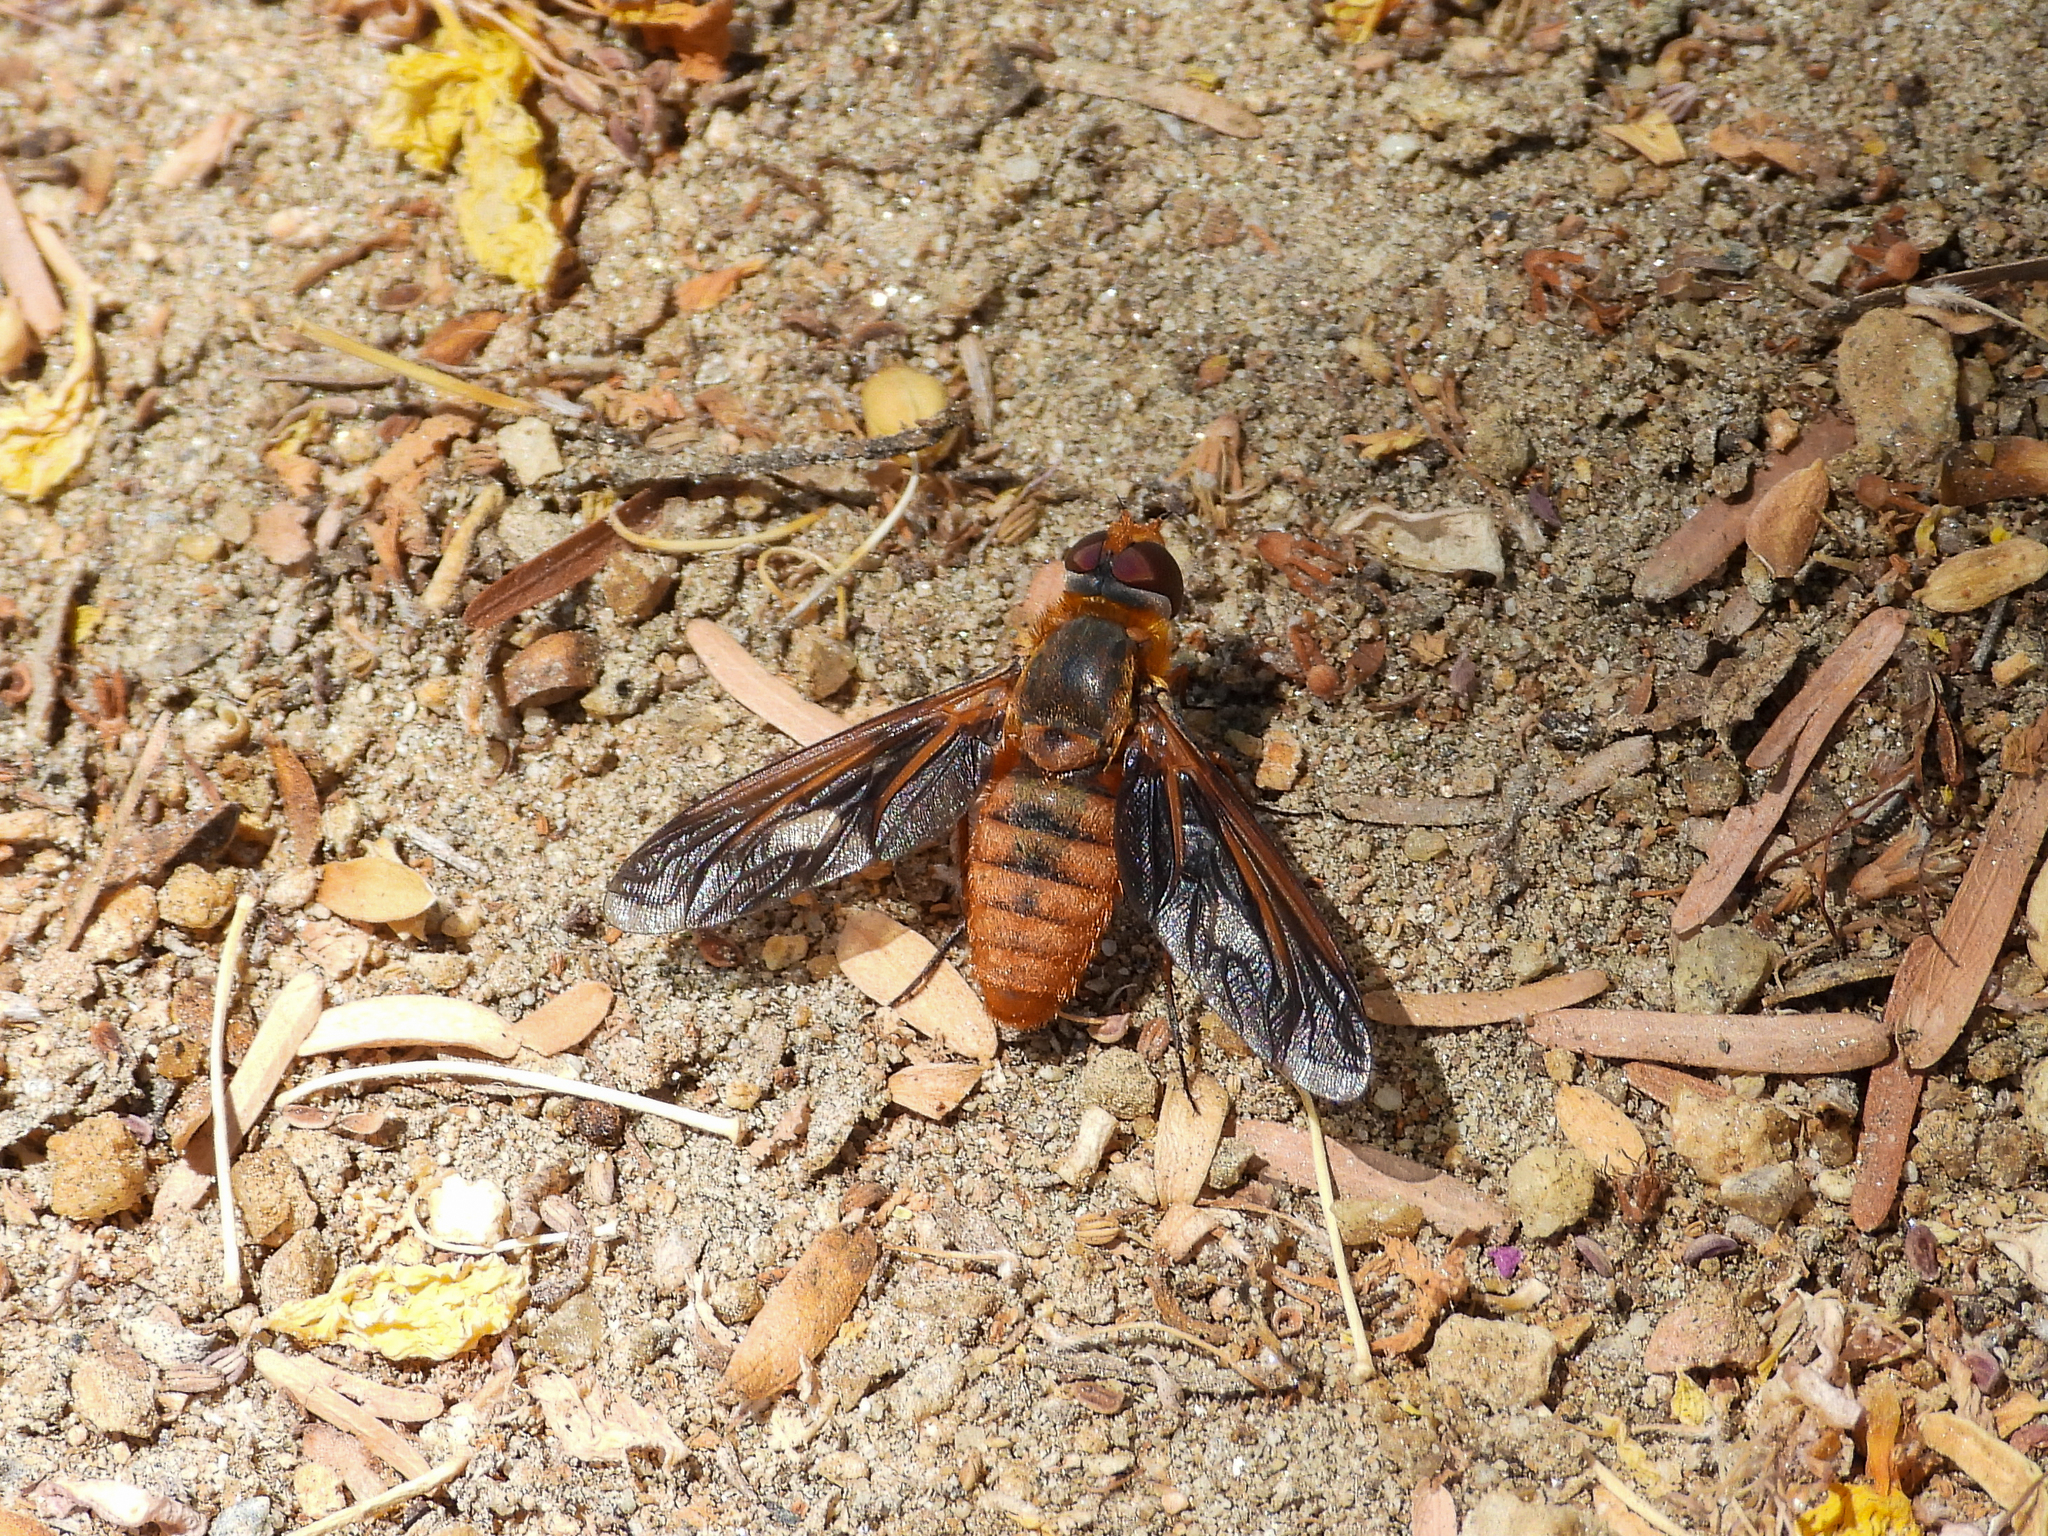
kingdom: Animalia
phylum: Arthropoda
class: Insecta
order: Diptera
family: Bombyliidae
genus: Poecilanthrax
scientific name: Poecilanthrax eremicus
